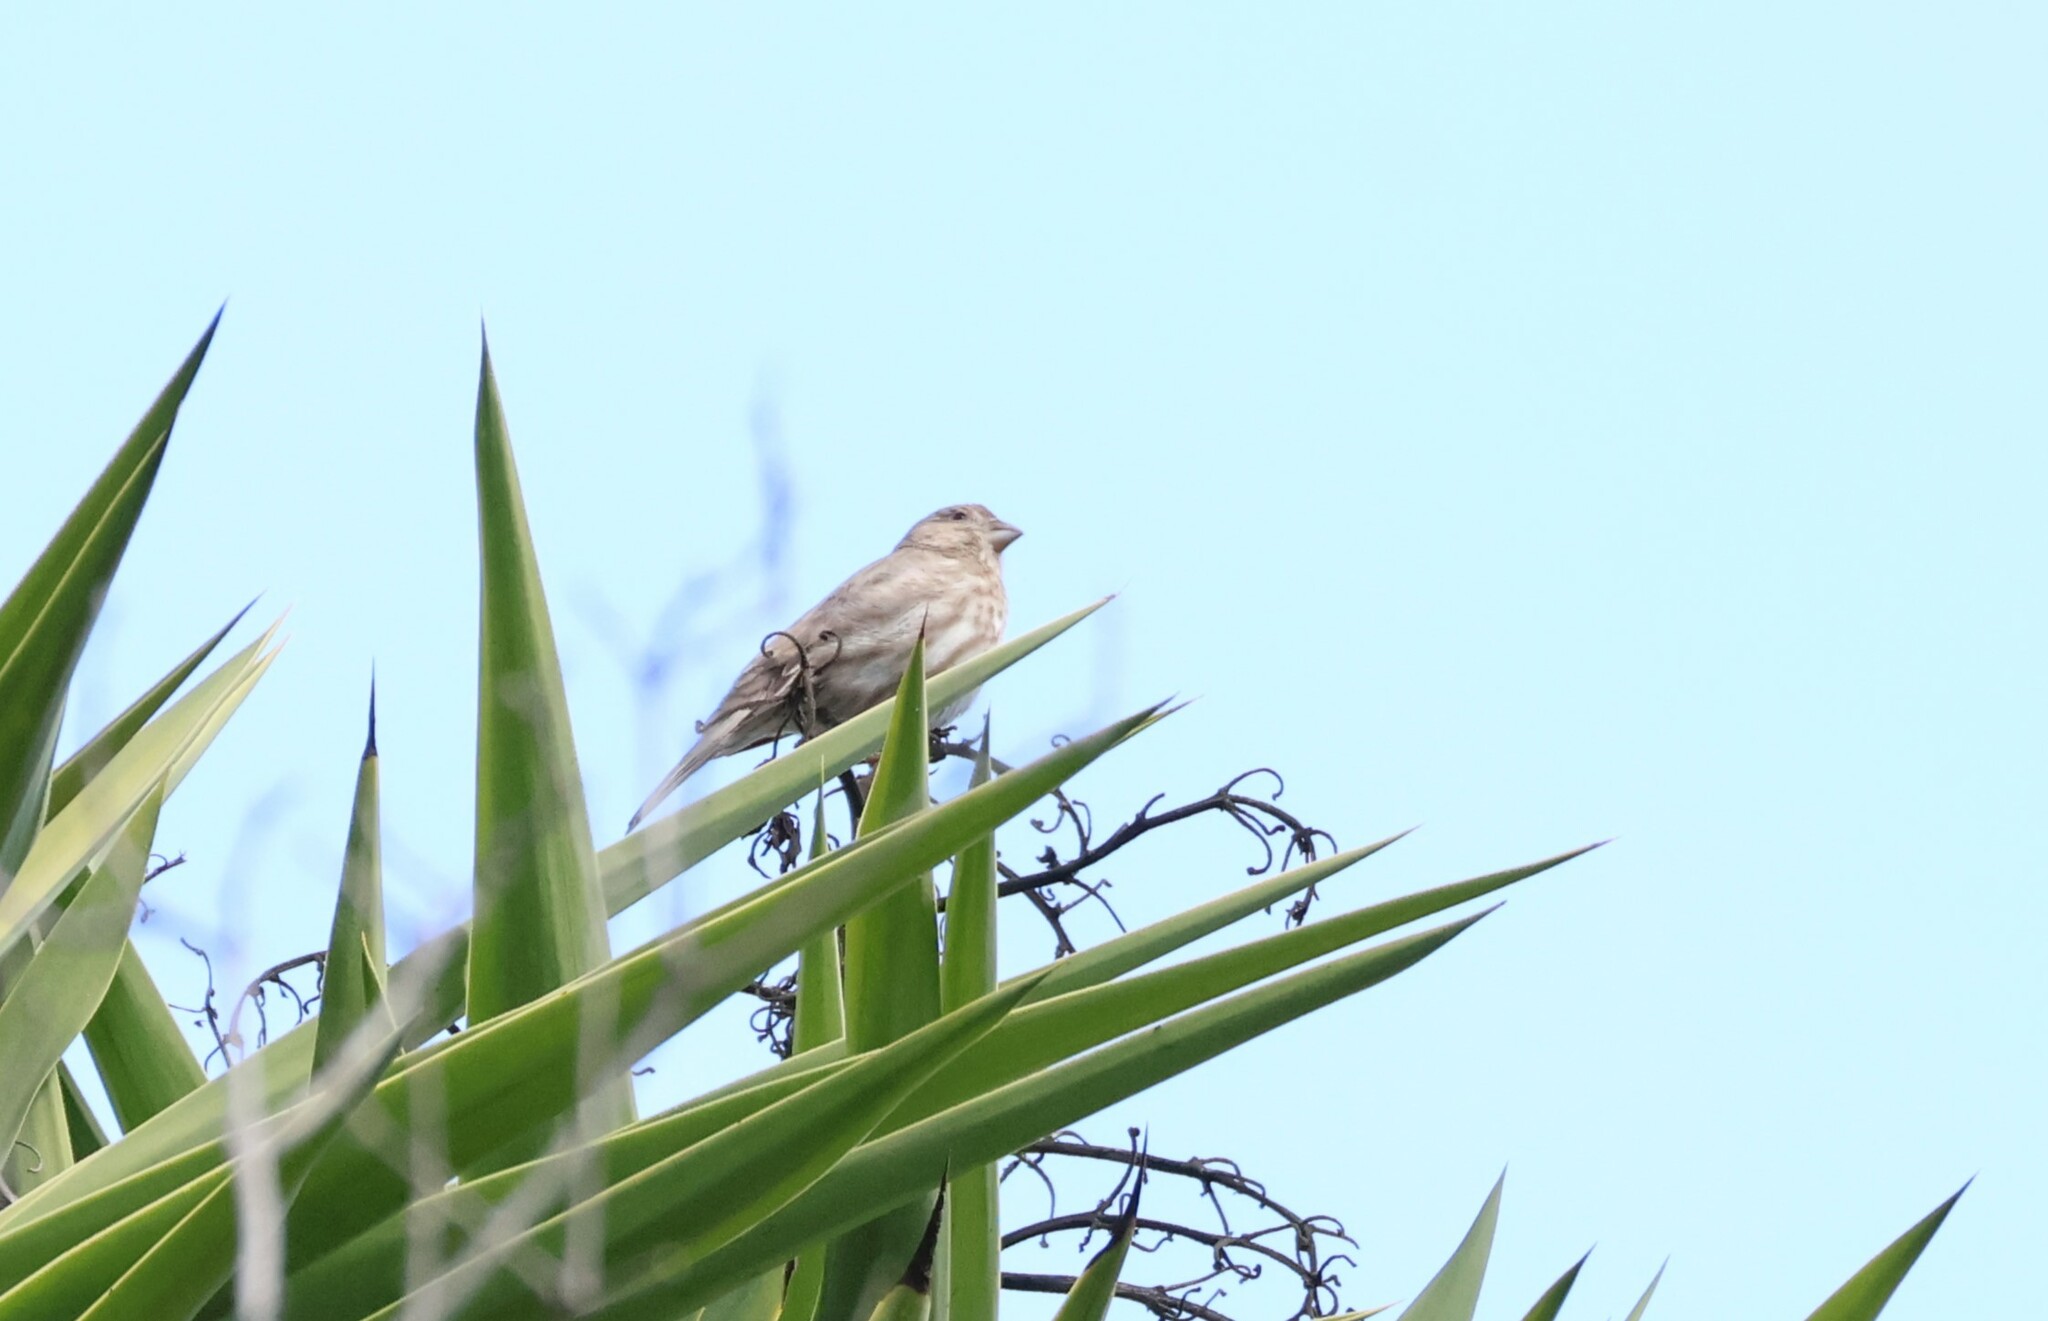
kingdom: Animalia
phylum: Chordata
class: Aves
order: Passeriformes
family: Fringillidae
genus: Haemorhous
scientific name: Haemorhous mexicanus
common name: House finch
